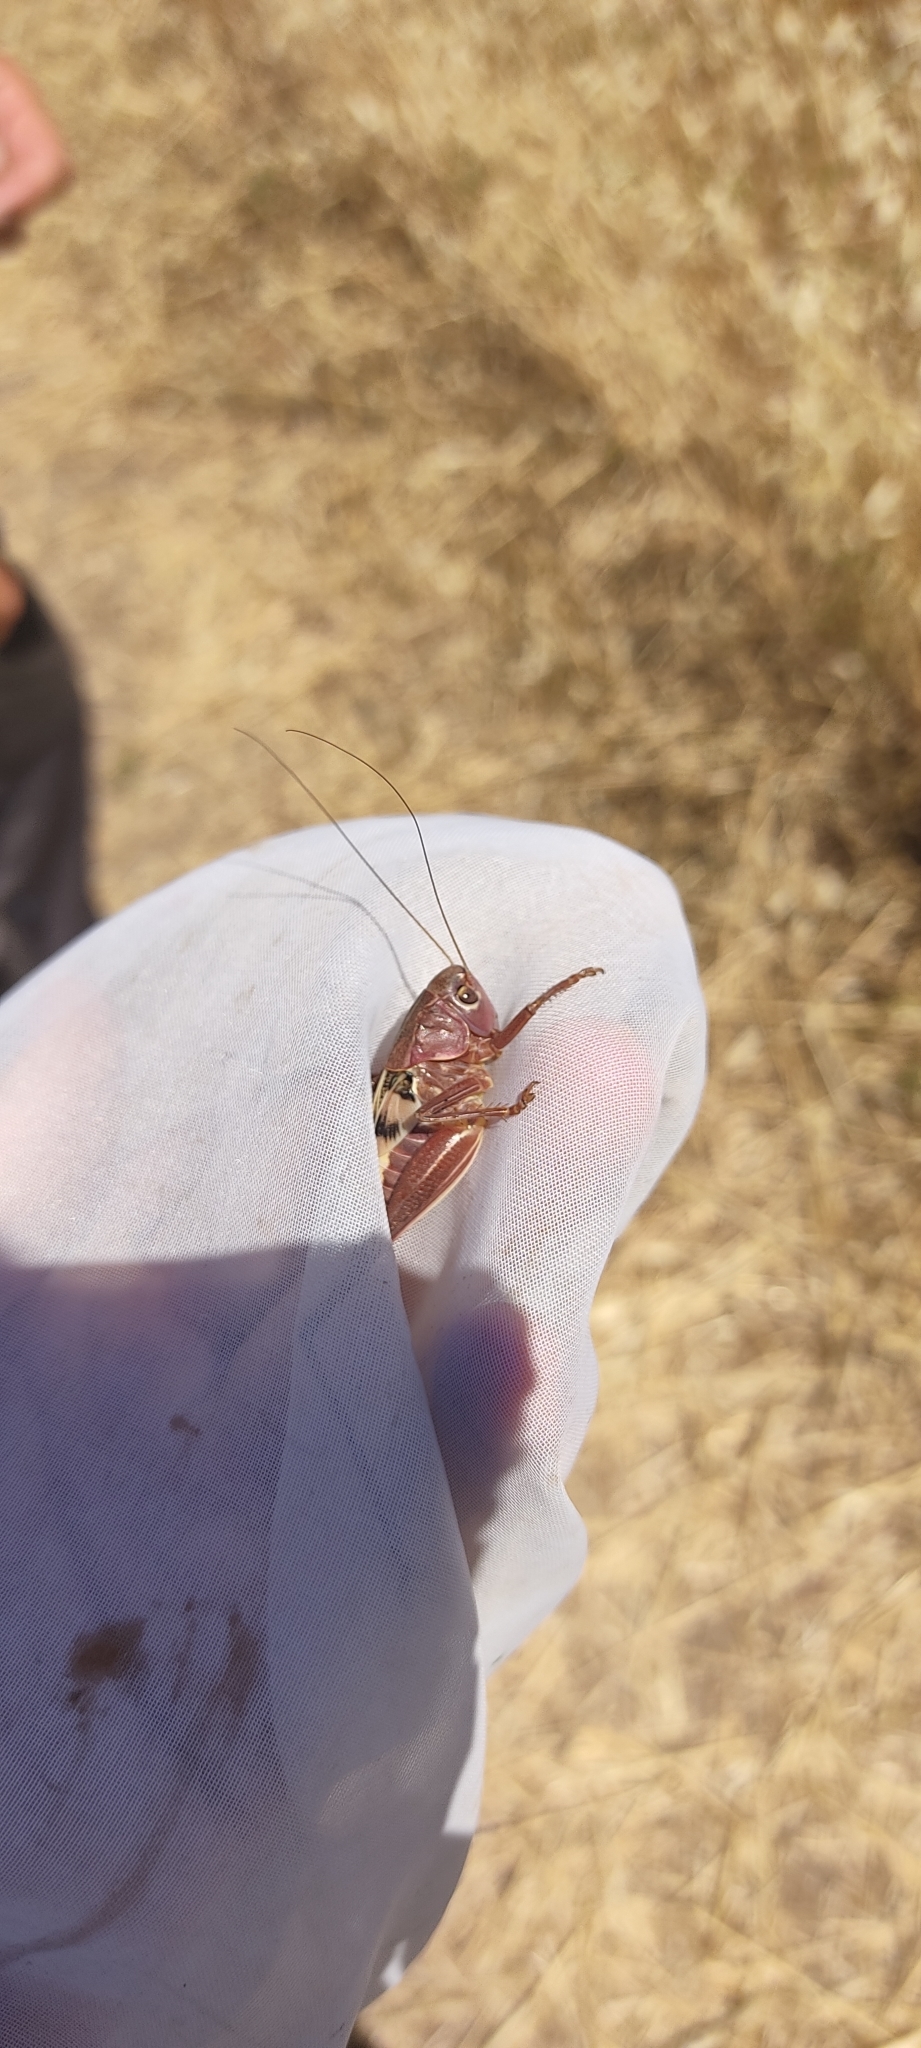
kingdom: Animalia
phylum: Arthropoda
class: Insecta
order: Orthoptera
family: Tettigoniidae
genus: Decticus
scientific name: Decticus albifrons
